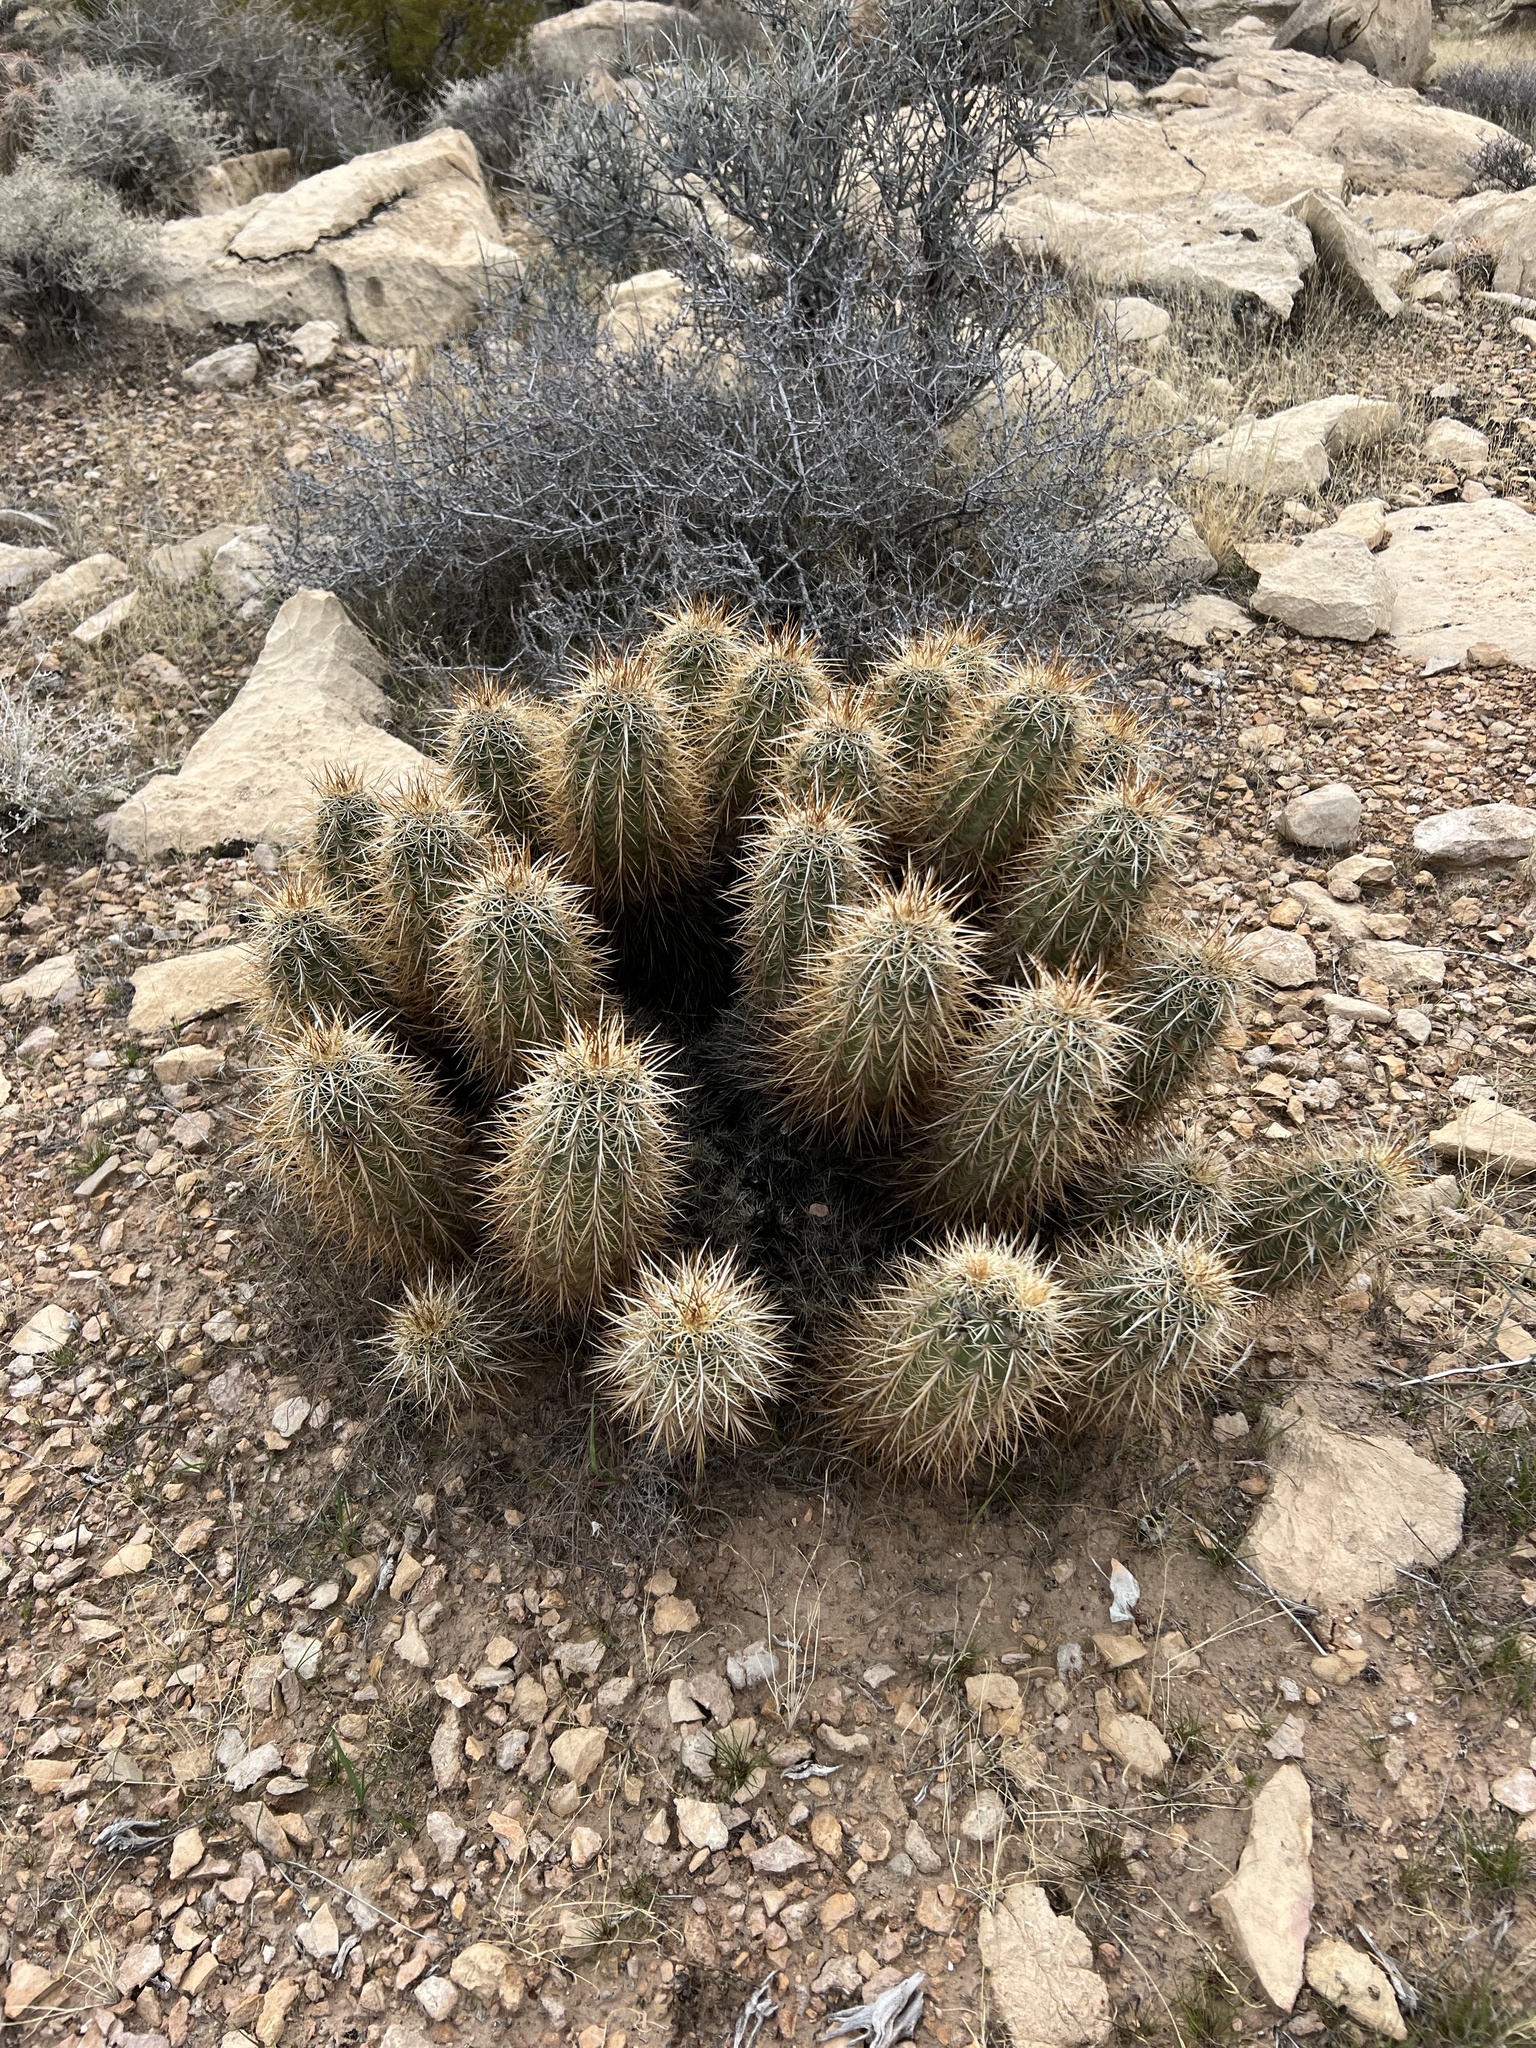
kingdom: Plantae
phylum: Tracheophyta
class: Magnoliopsida
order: Caryophyllales
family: Cactaceae
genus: Echinocereus
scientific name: Echinocereus engelmannii
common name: Engelmann's hedgehog cactus
